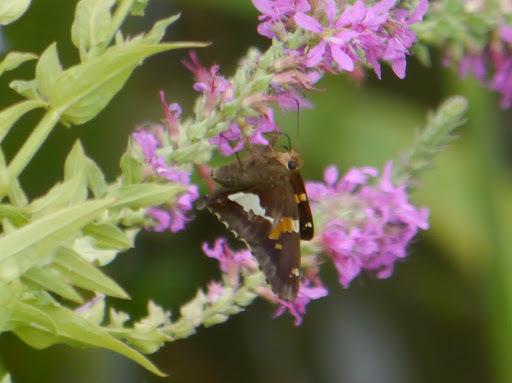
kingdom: Animalia
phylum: Arthropoda
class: Insecta
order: Lepidoptera
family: Hesperiidae
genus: Epargyreus
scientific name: Epargyreus clarus
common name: Silver-spotted skipper
